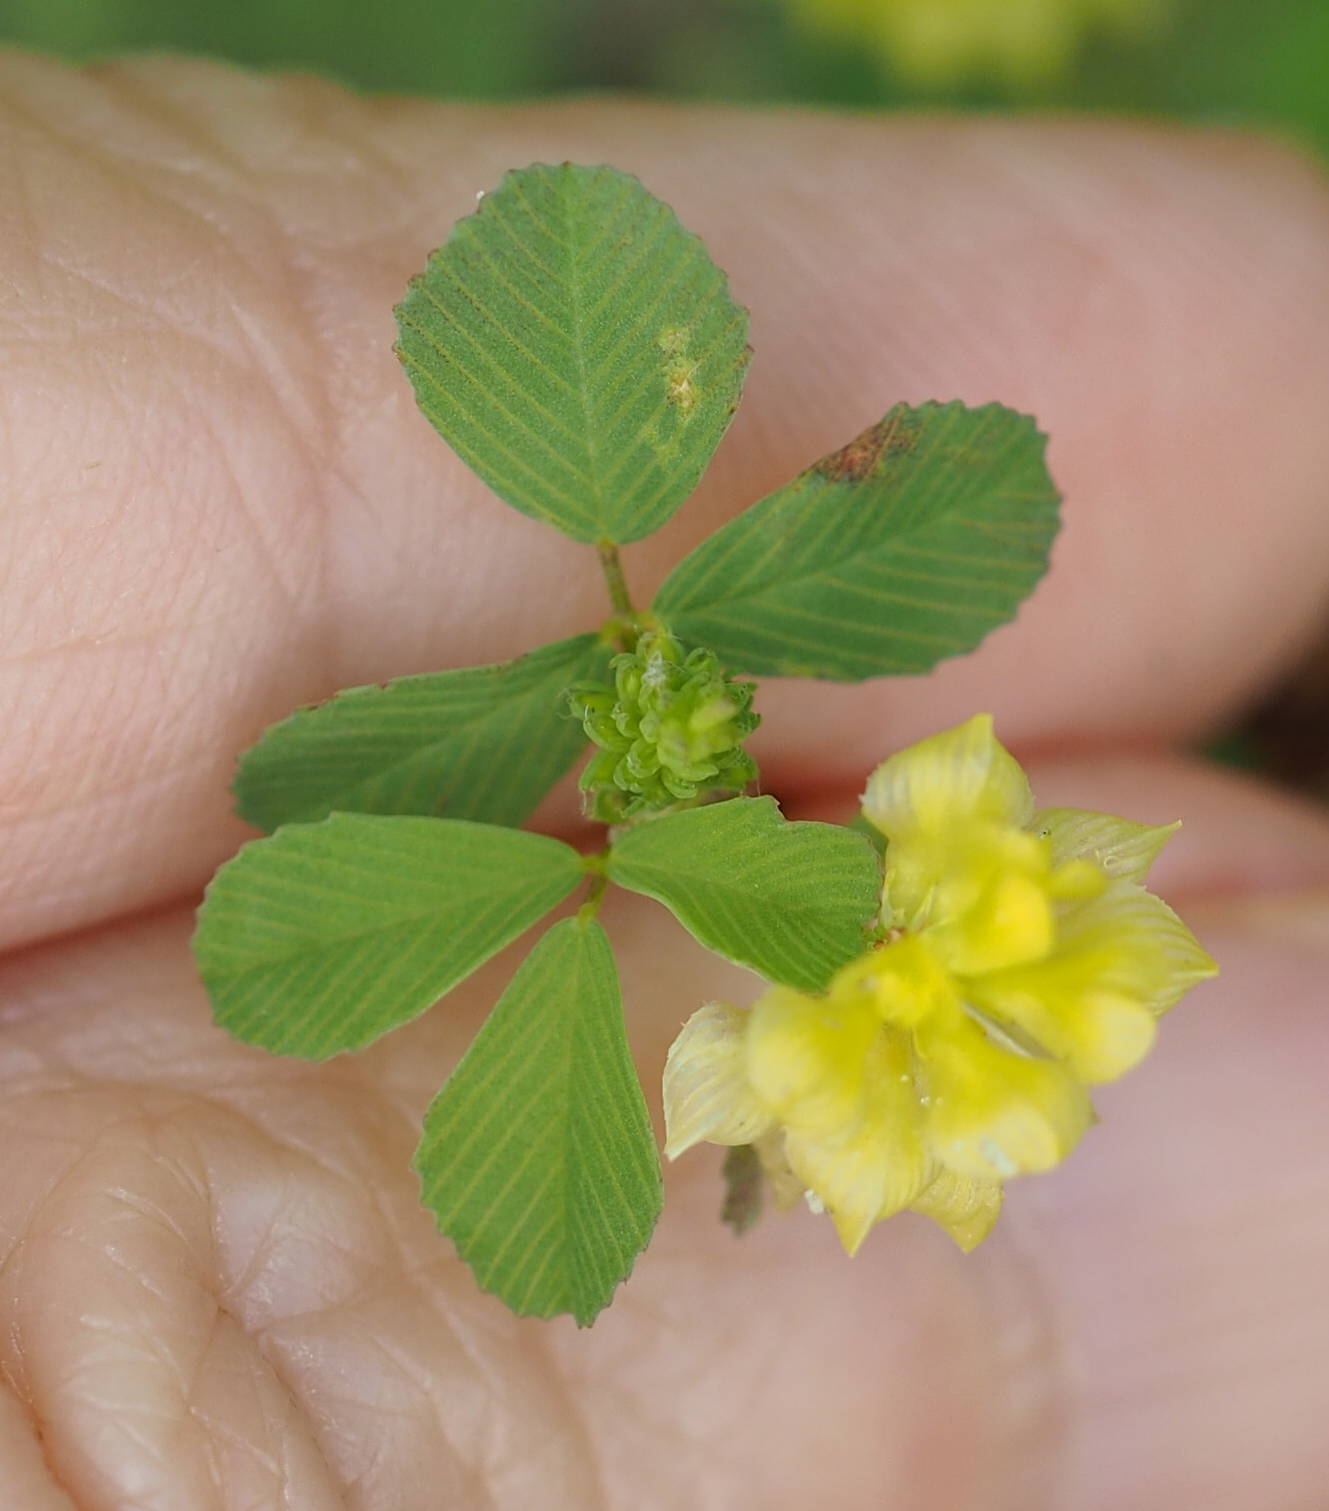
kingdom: Plantae
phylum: Tracheophyta
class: Magnoliopsida
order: Fabales
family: Fabaceae
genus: Trifolium
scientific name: Trifolium campestre
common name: Field clover
